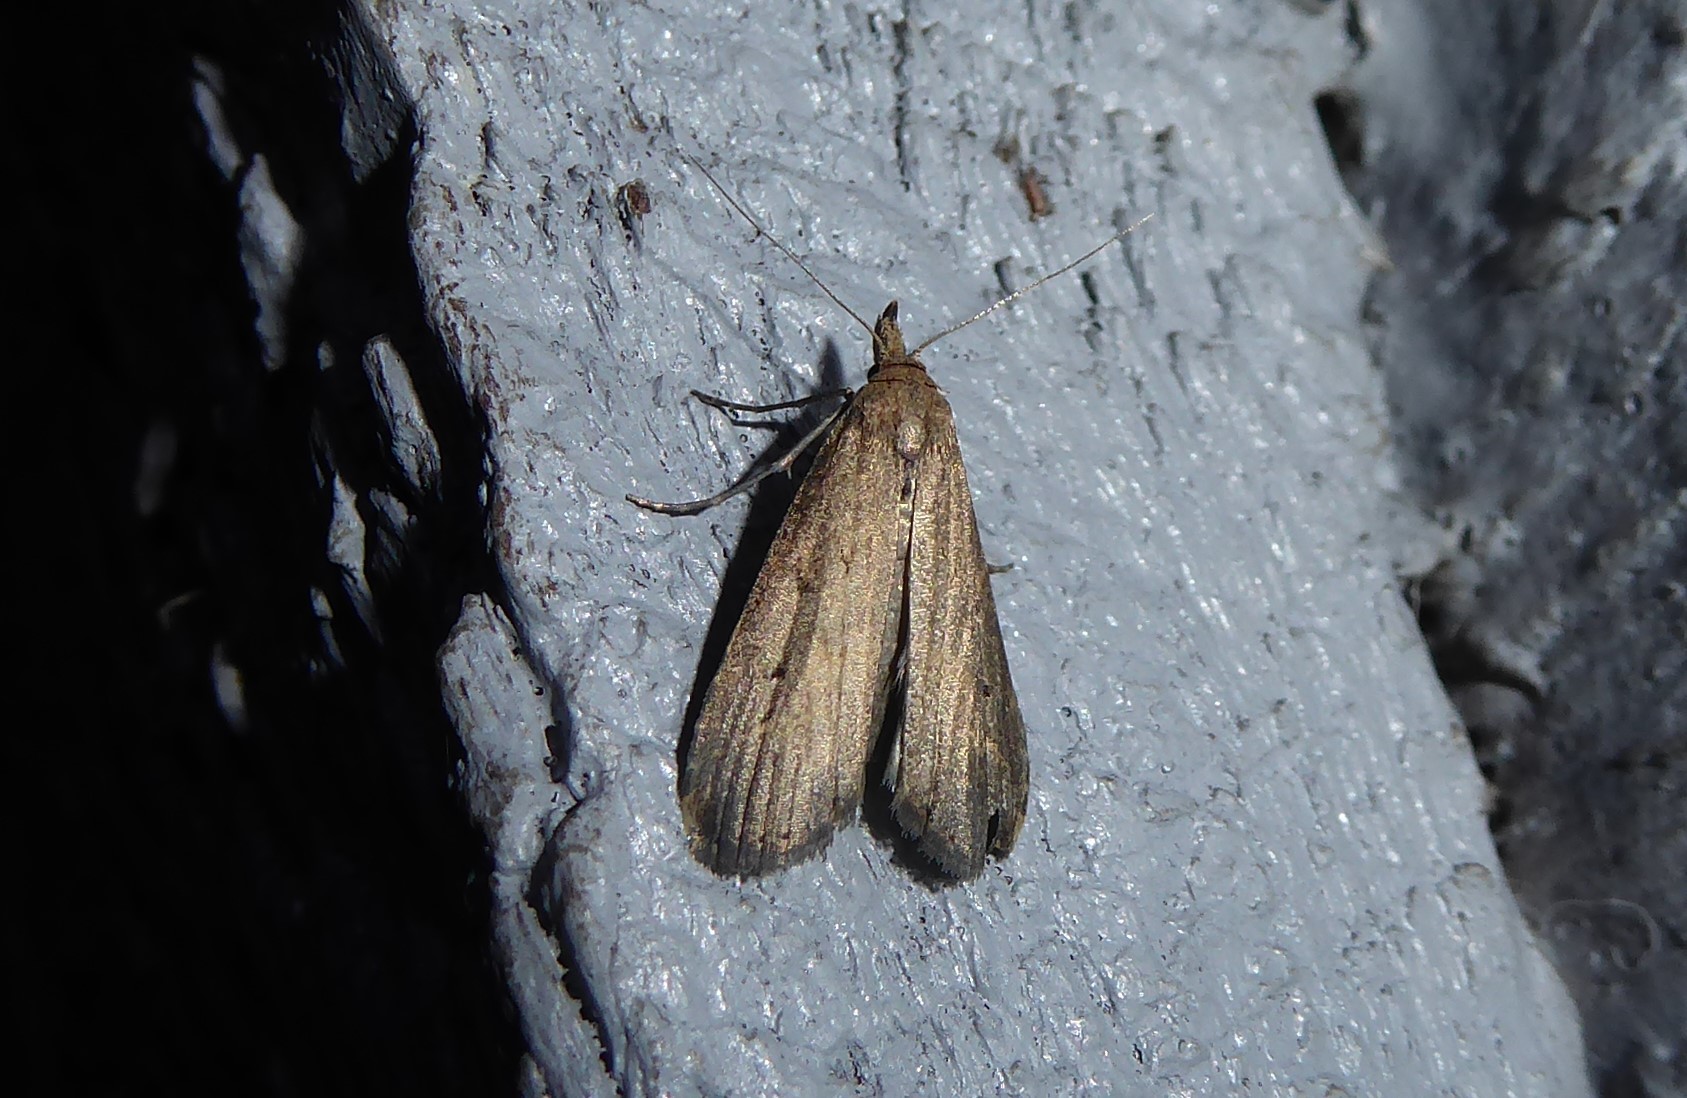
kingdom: Animalia
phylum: Arthropoda
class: Insecta
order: Lepidoptera
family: Erebidae
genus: Schrankia
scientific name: Schrankia costaestrigalis
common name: Pinion-streaked snout
